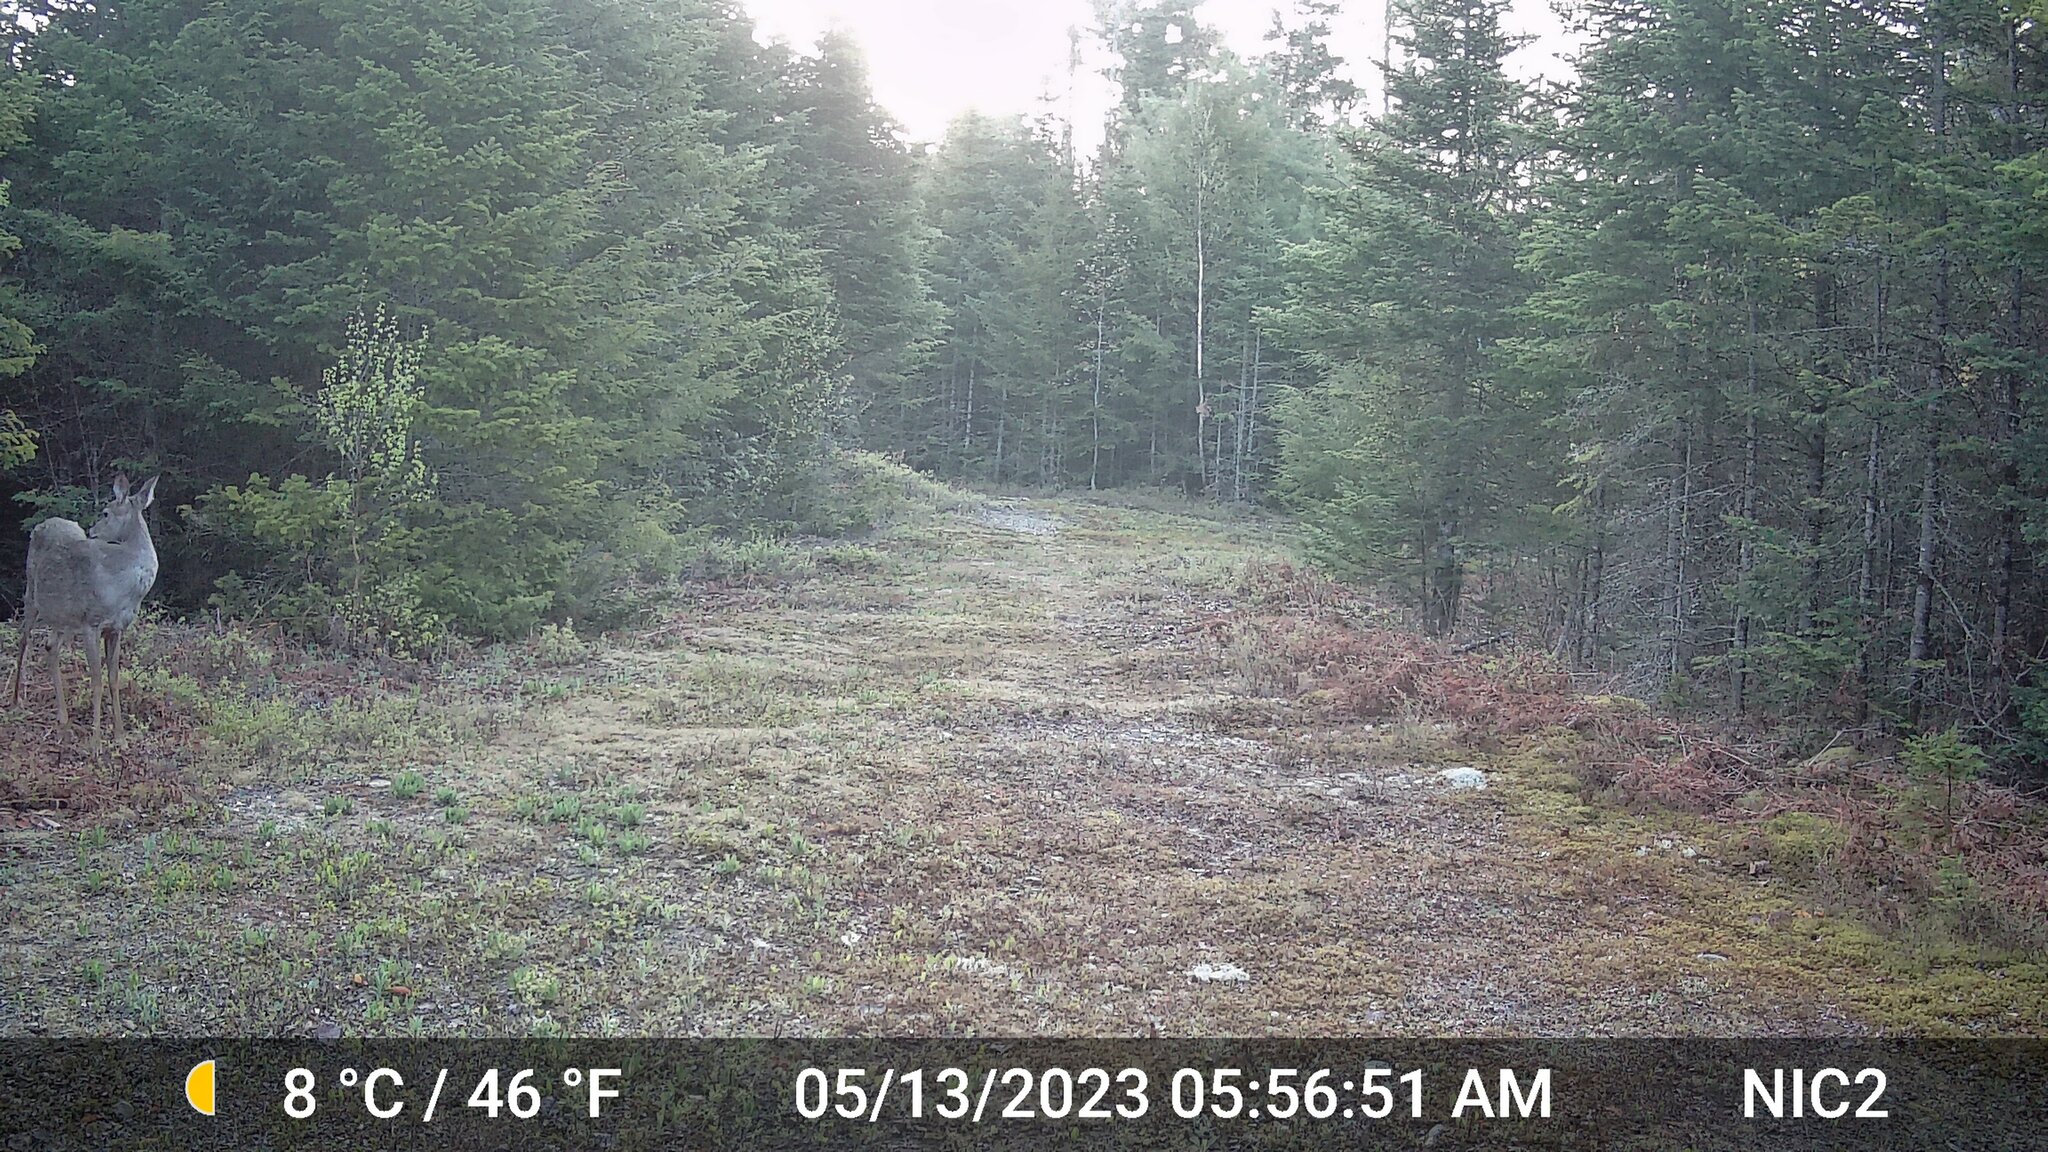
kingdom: Animalia
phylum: Chordata
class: Mammalia
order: Artiodactyla
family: Cervidae
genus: Odocoileus
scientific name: Odocoileus virginianus
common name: White-tailed deer
